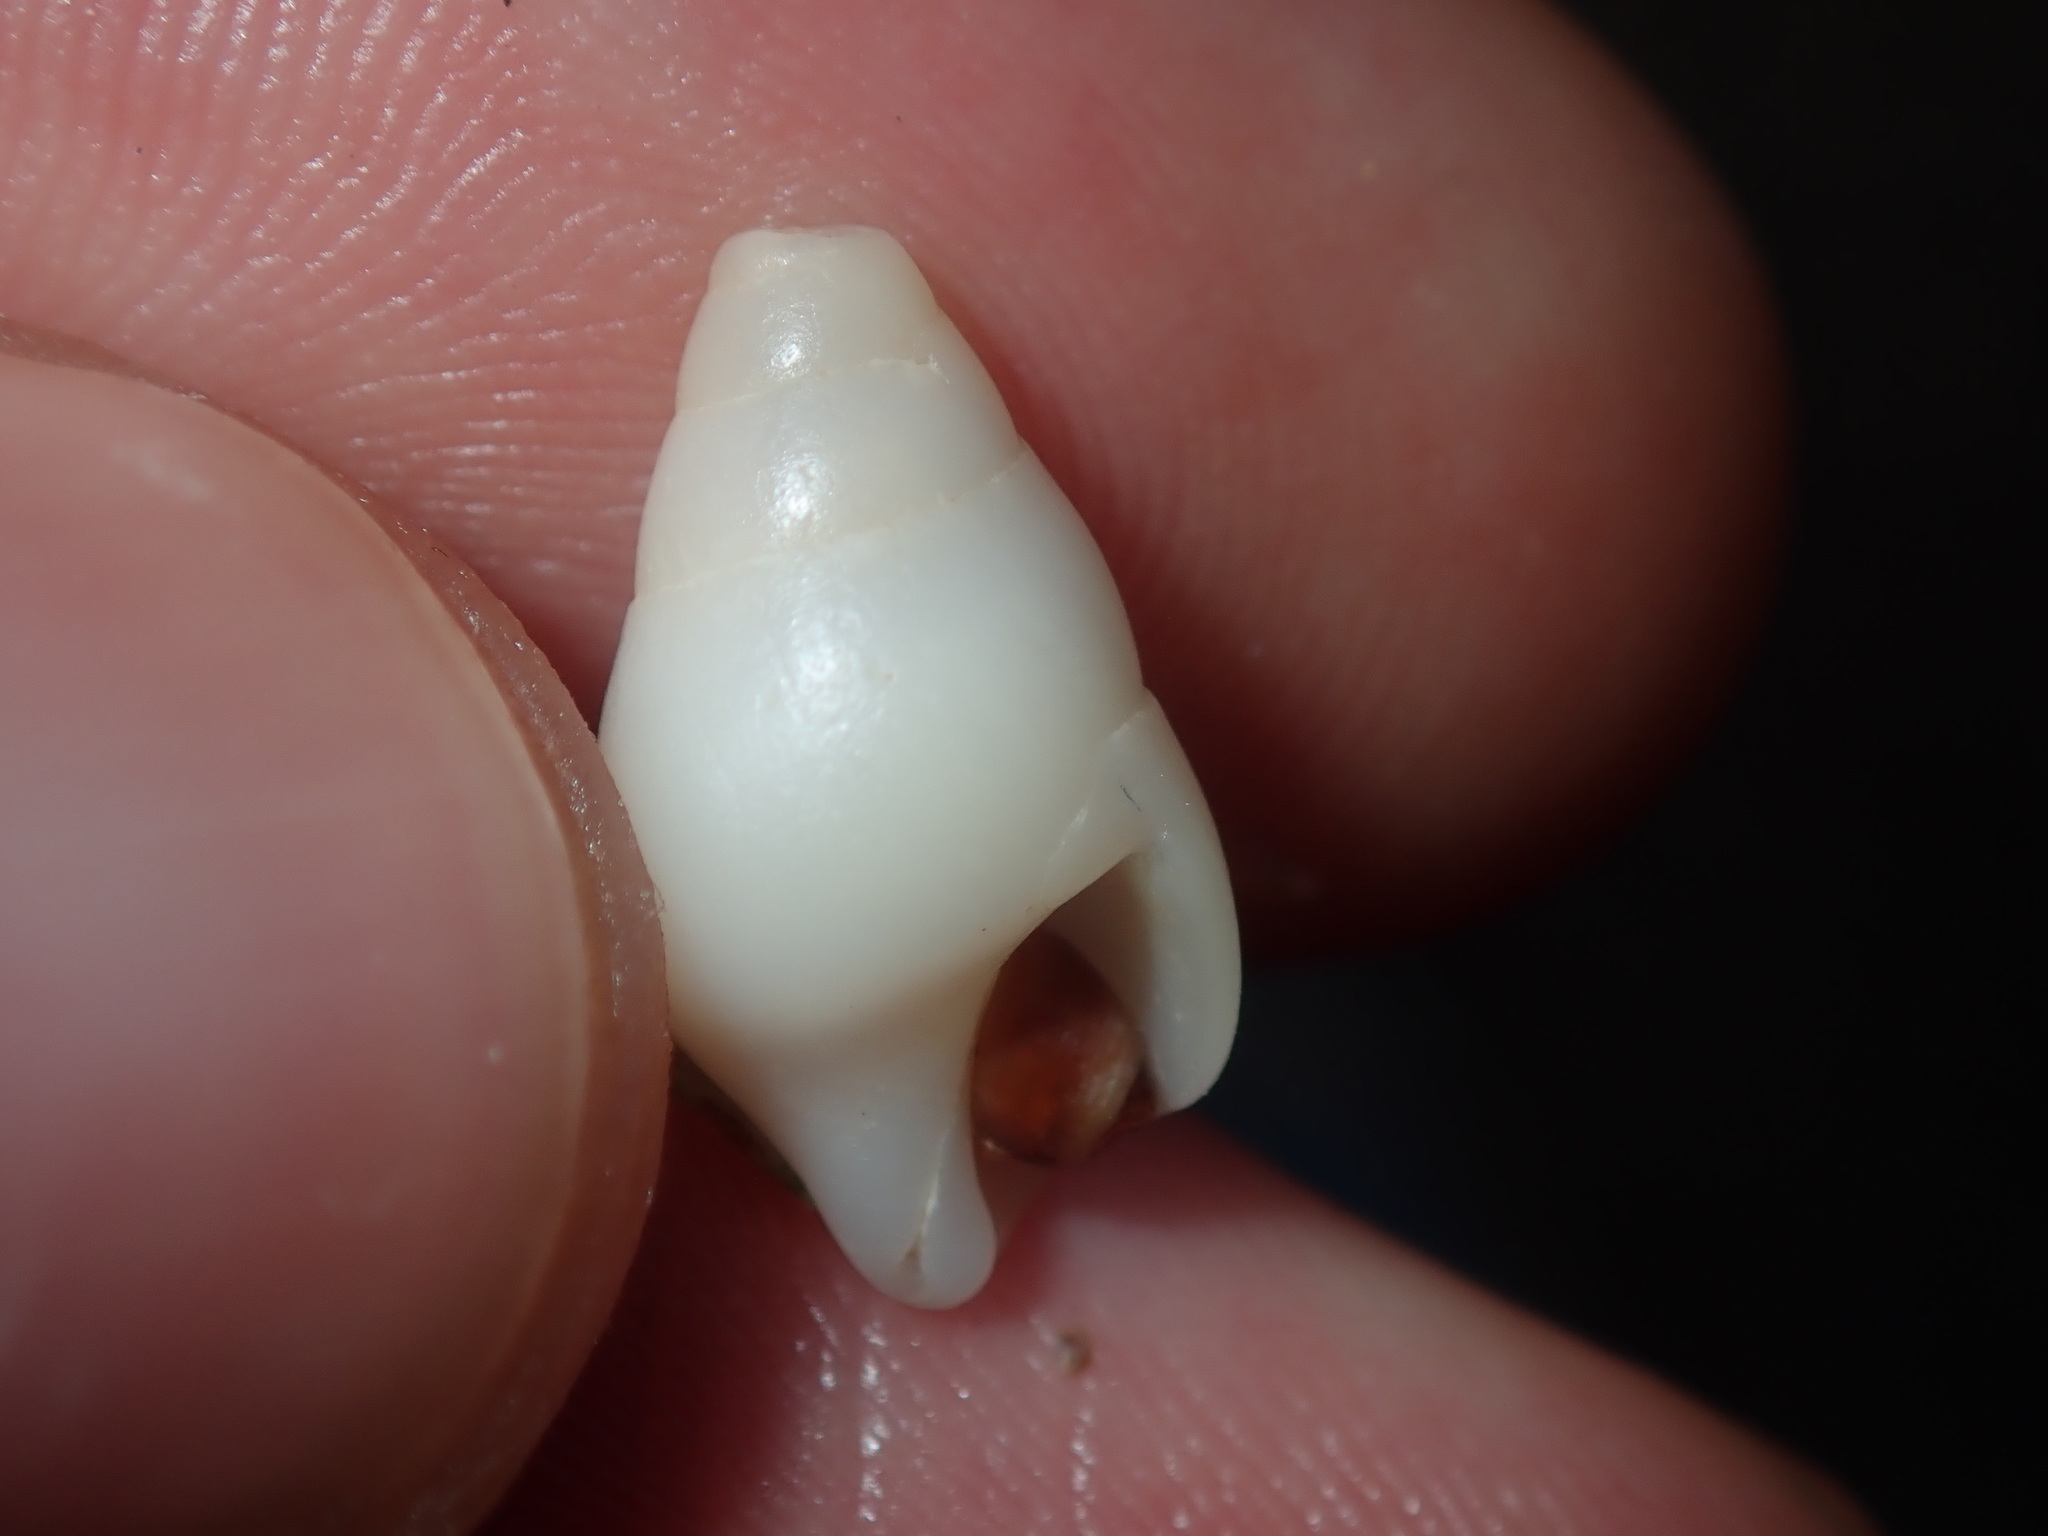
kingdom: Animalia
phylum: Mollusca
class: Gastropoda
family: Planaxidae
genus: Hinea
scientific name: Hinea brasiliana
